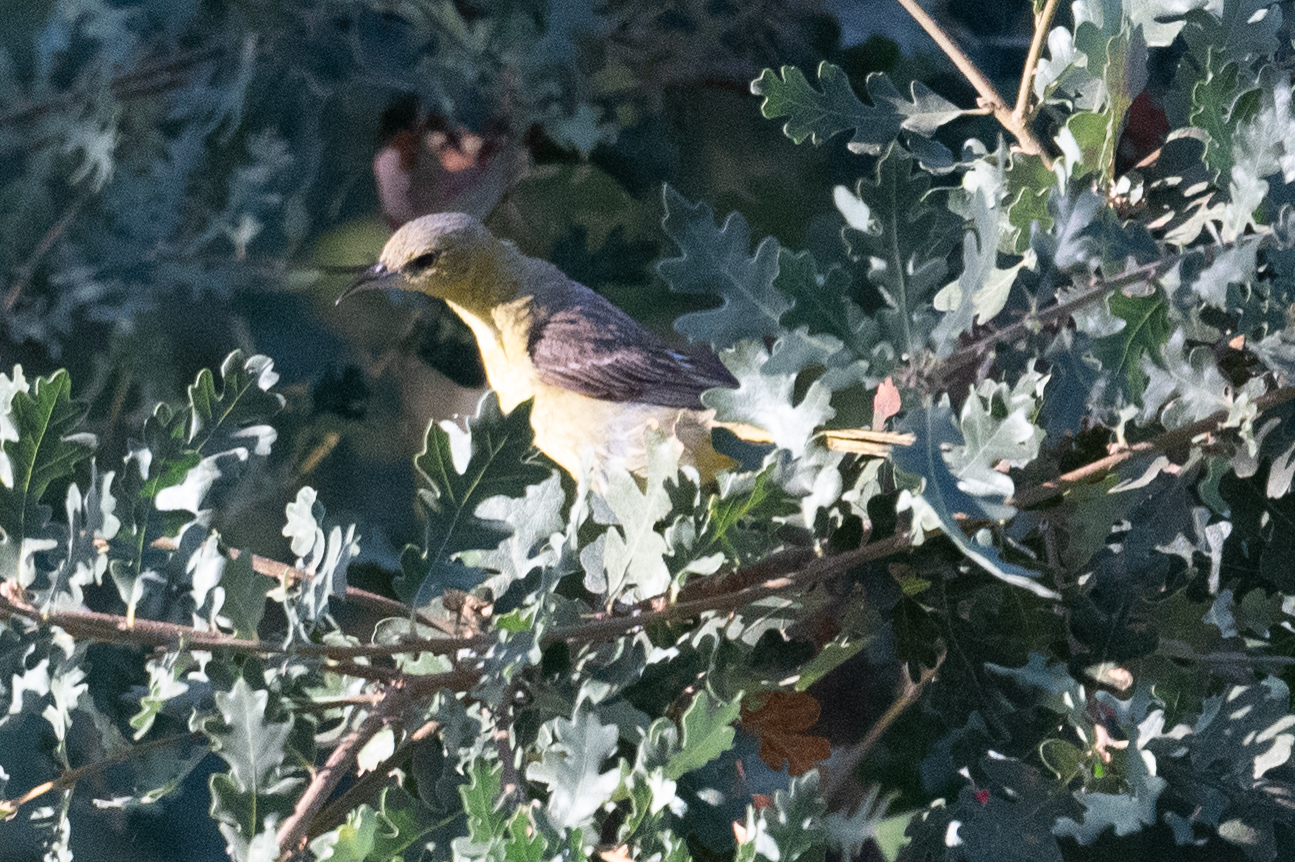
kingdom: Animalia
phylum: Chordata
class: Aves
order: Passeriformes
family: Icteridae
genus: Icterus
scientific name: Icterus bullockii
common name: Bullock's oriole
